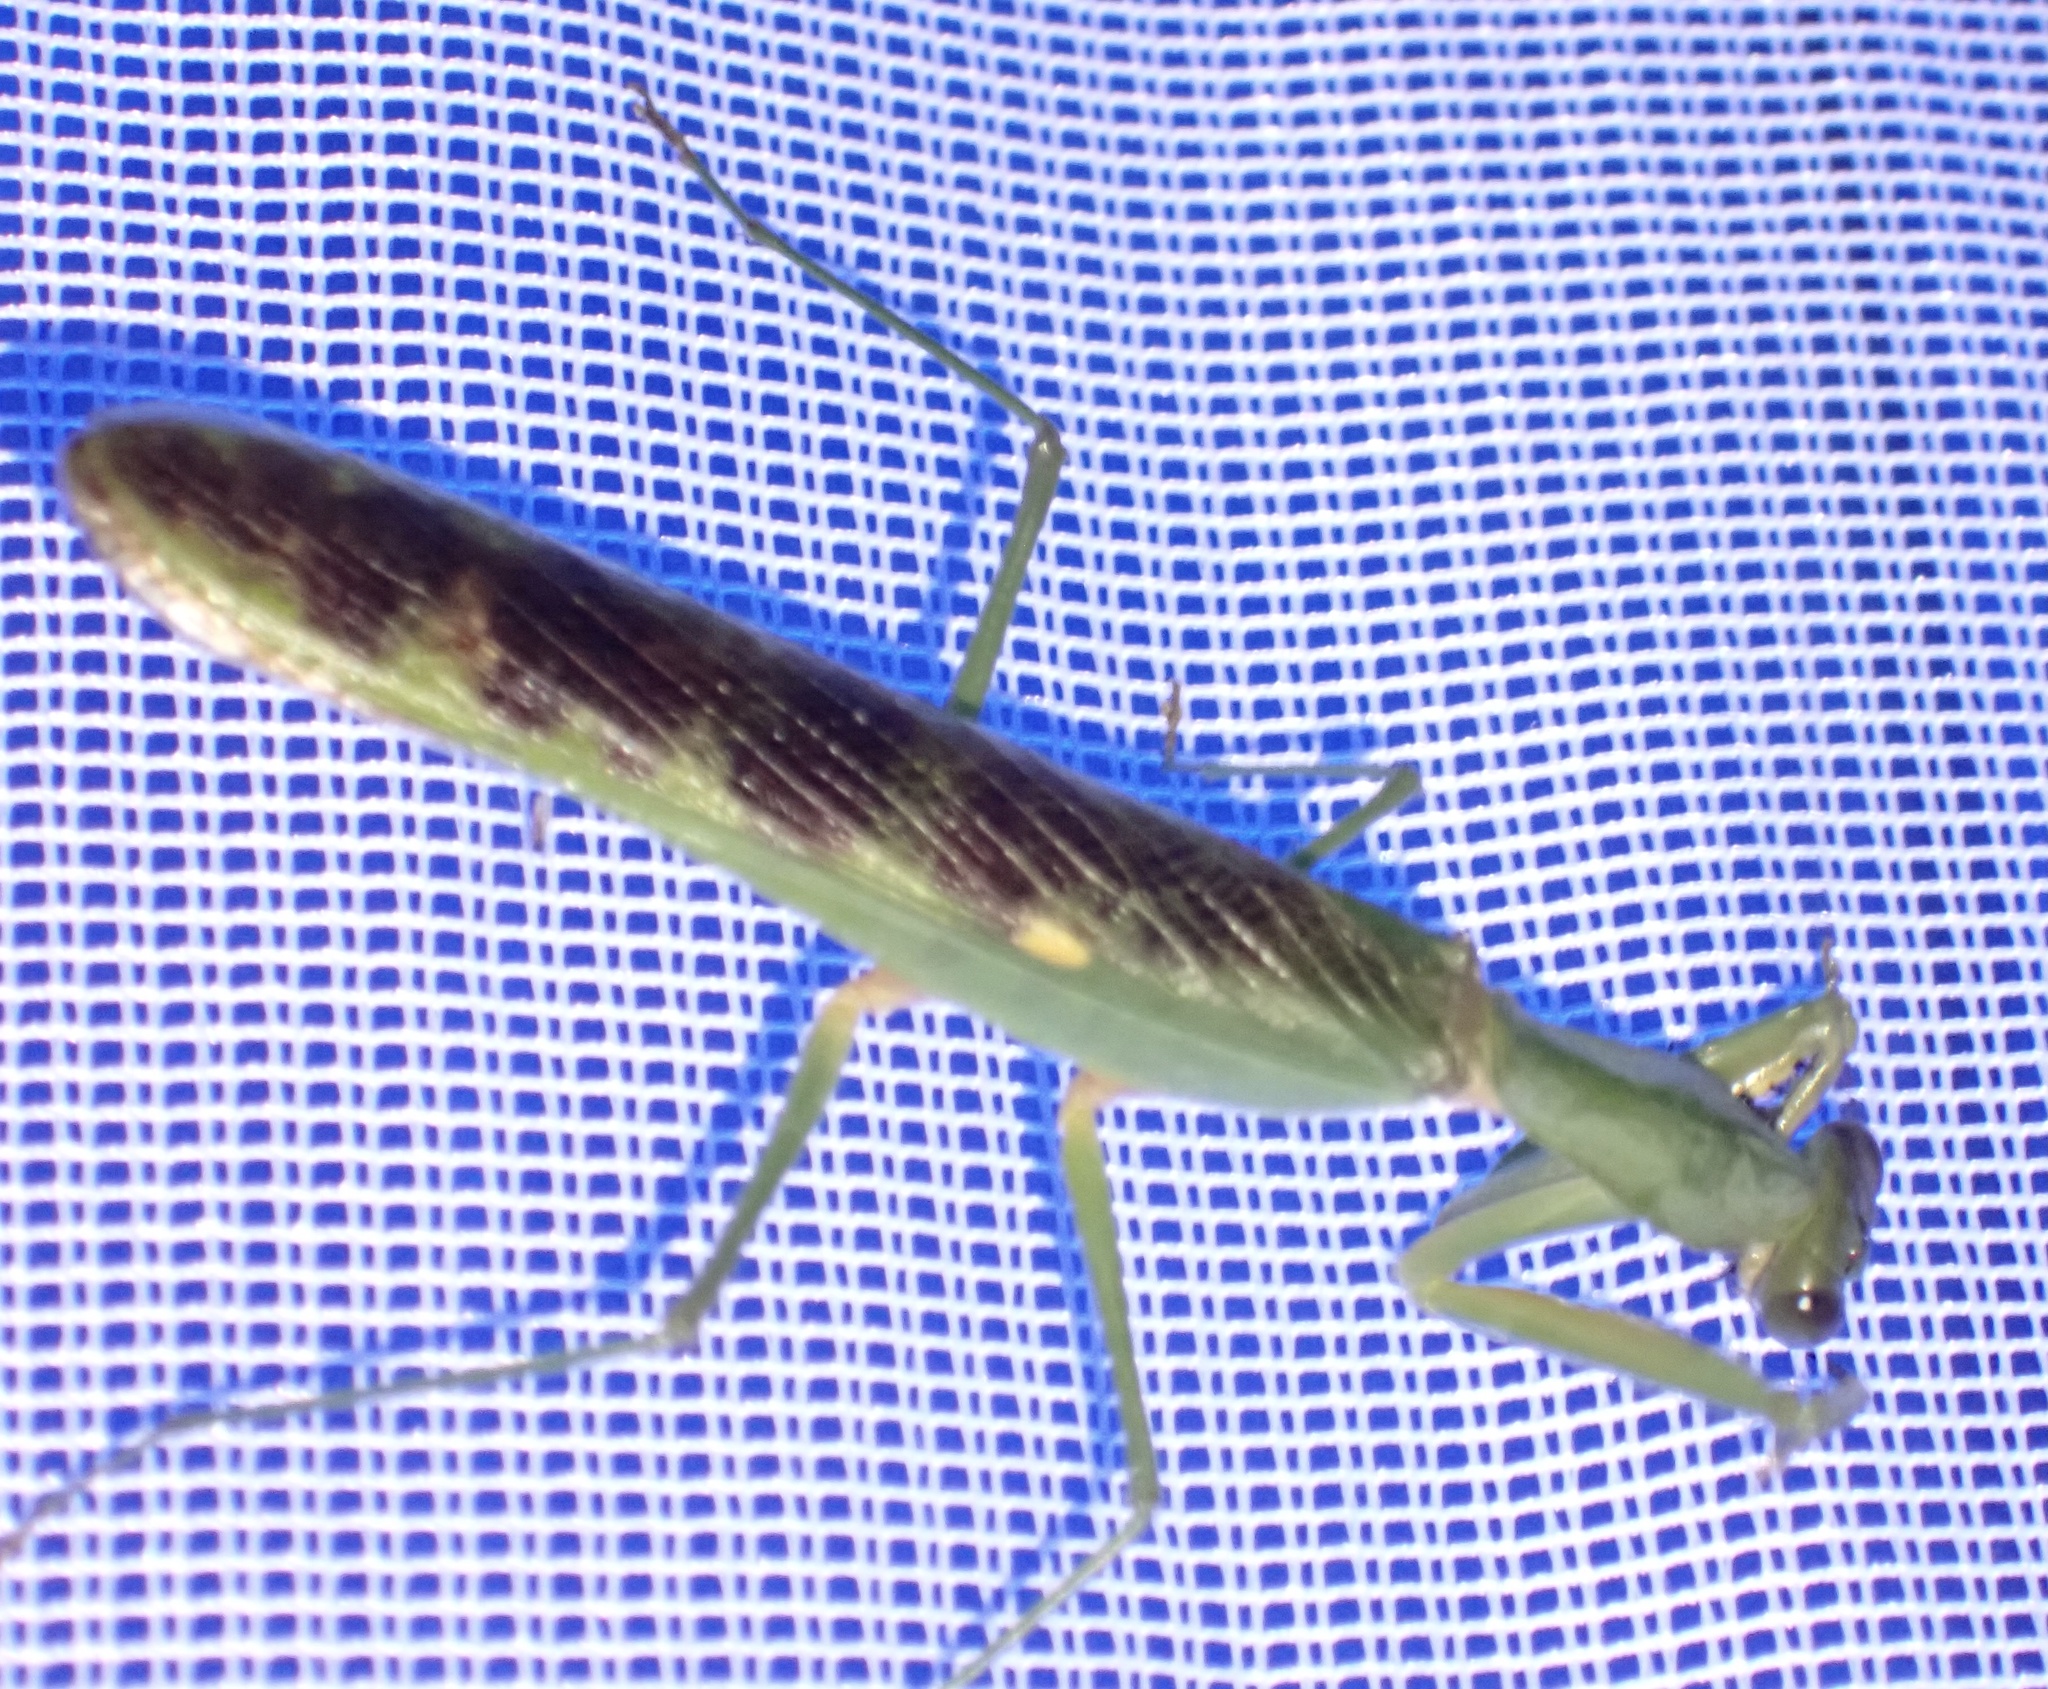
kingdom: Animalia
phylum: Arthropoda
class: Insecta
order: Mantodea
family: Mantidae
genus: Prohierodula
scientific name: Prohierodula ornatipennis
